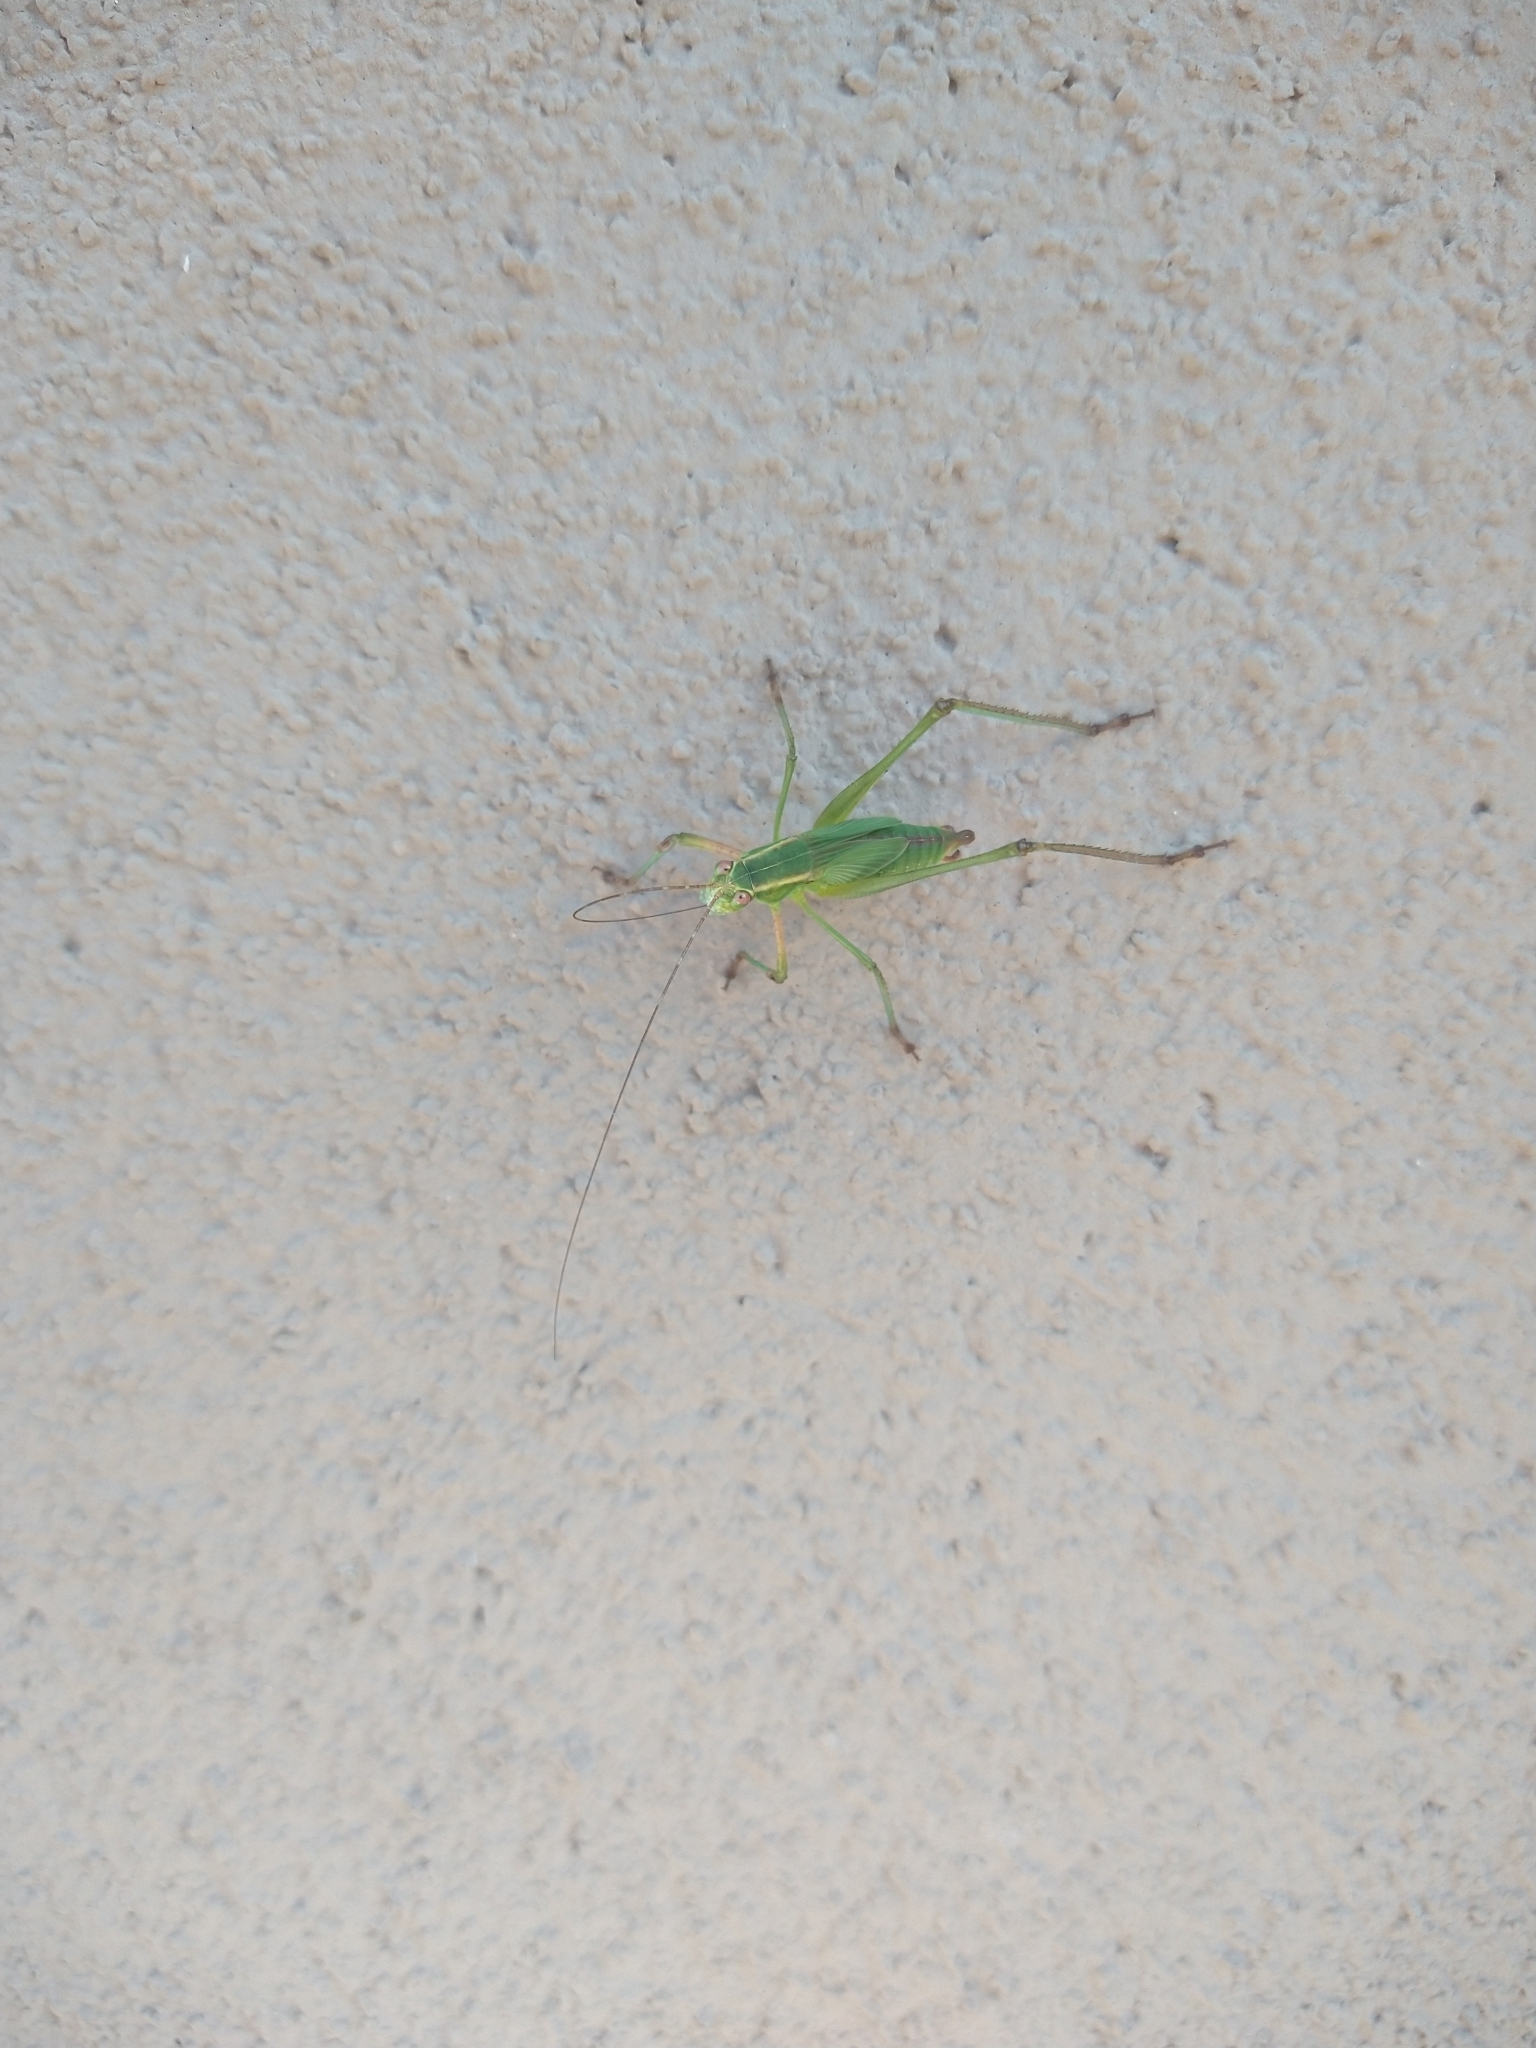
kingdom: Animalia
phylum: Arthropoda
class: Insecta
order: Orthoptera
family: Tettigoniidae
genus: Scudderia
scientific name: Scudderia furcata
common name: Fork-tailed bush katydid
